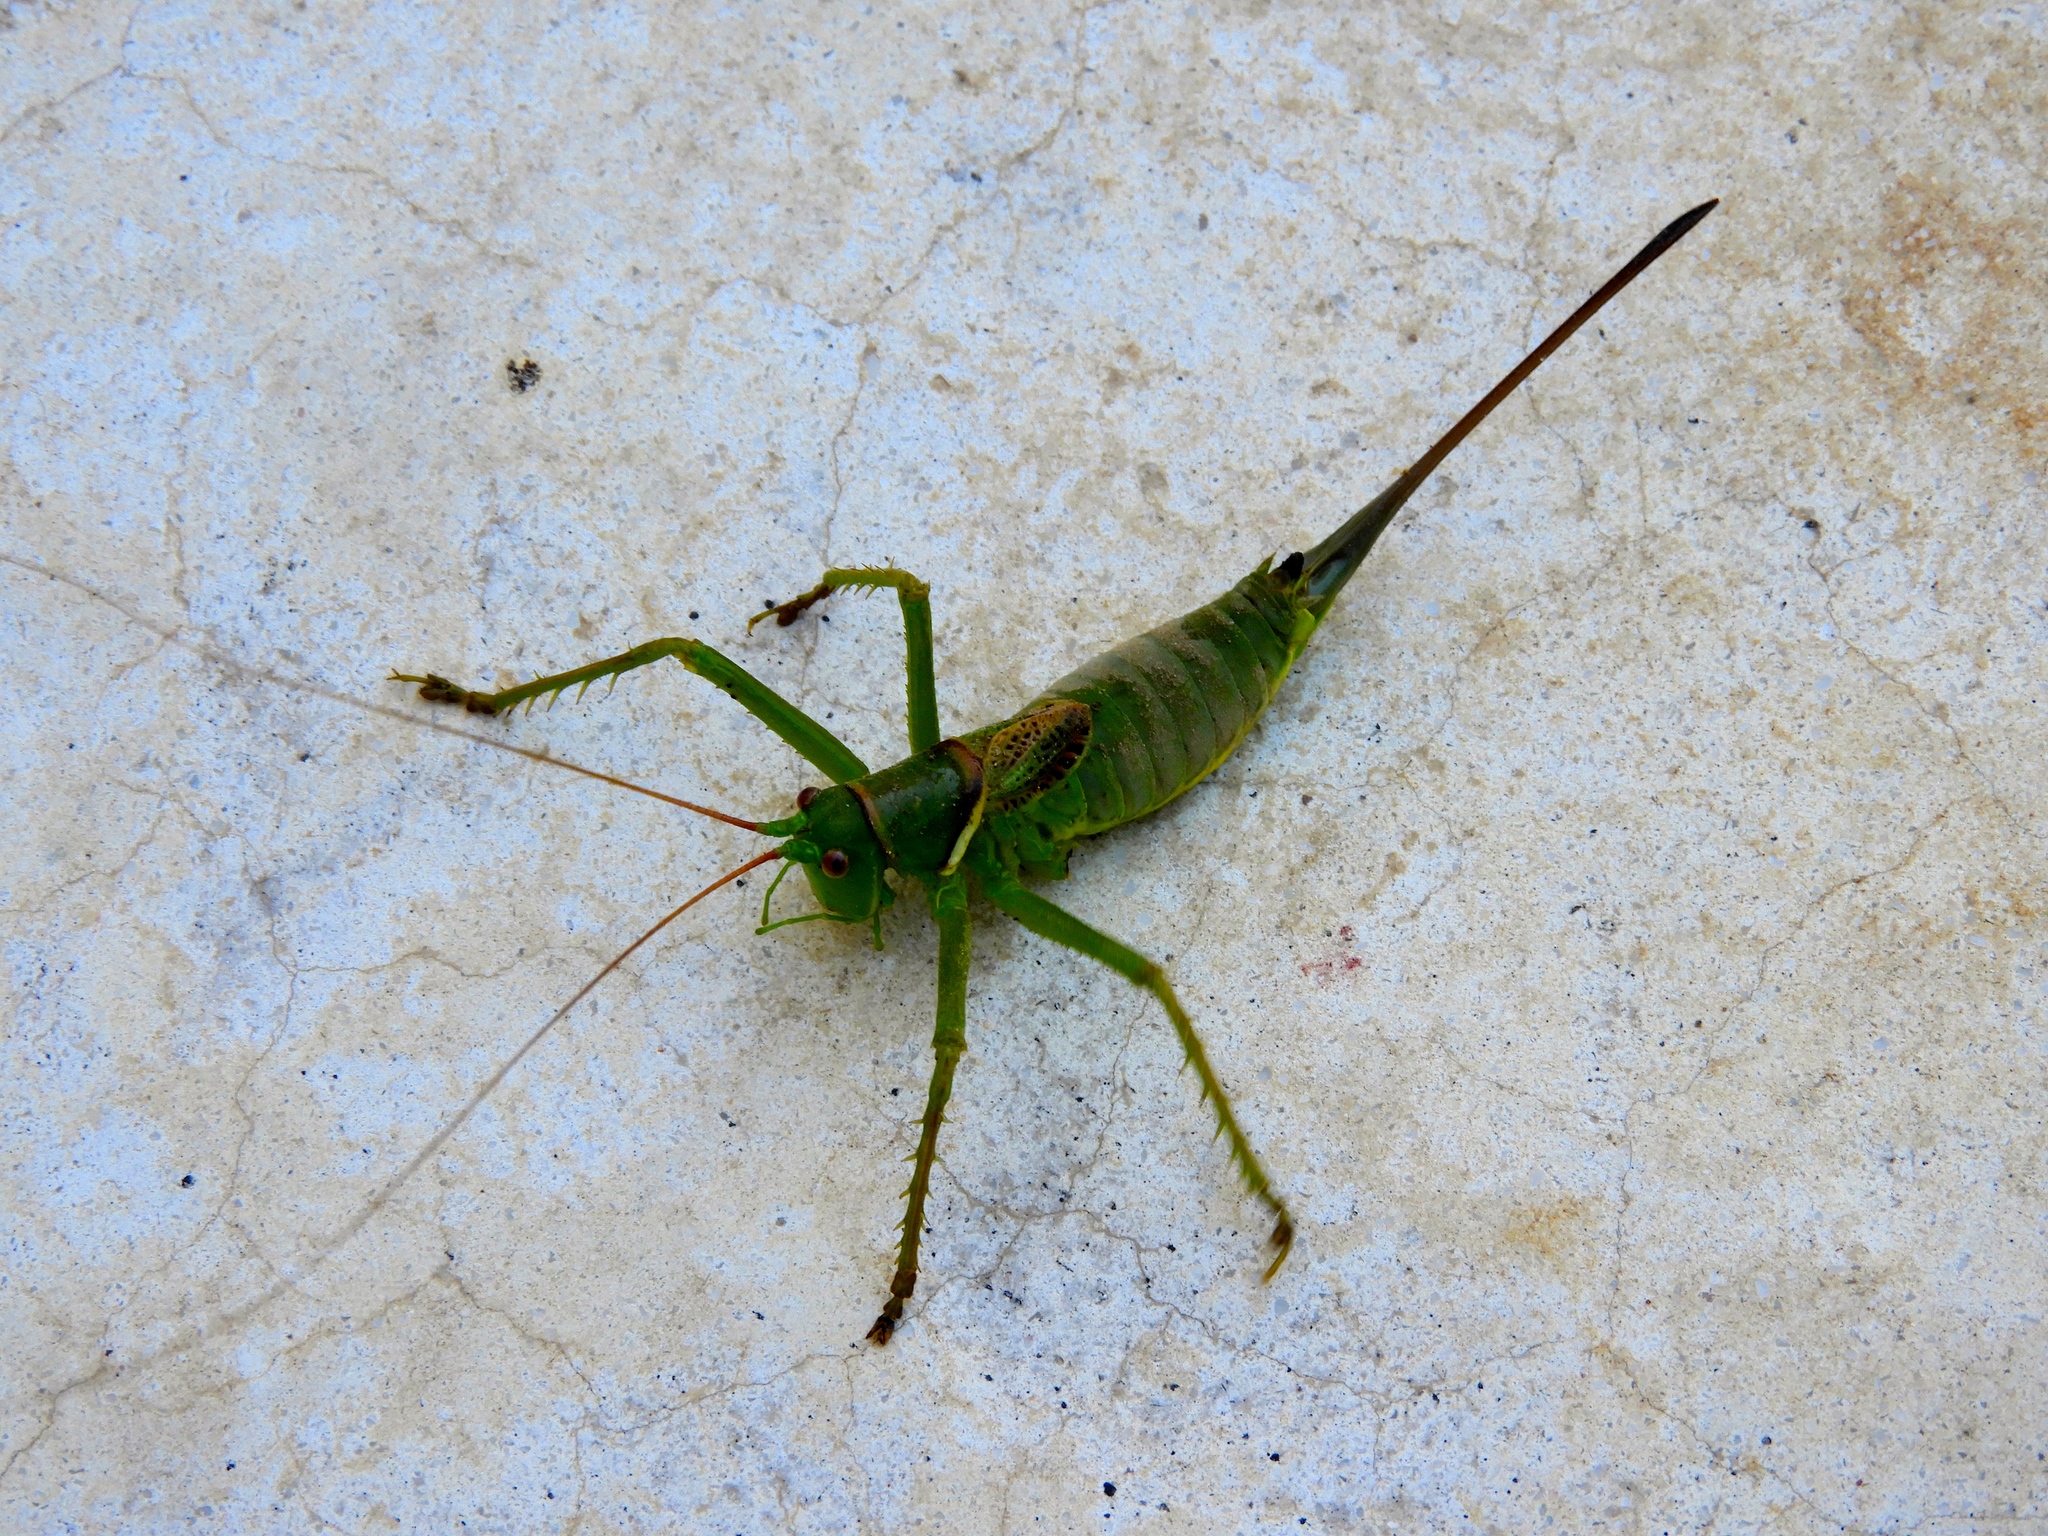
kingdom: Animalia
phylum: Arthropoda
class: Insecta
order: Orthoptera
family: Tettigoniidae
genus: Neobarrettia
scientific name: Neobarrettia sinaloae
